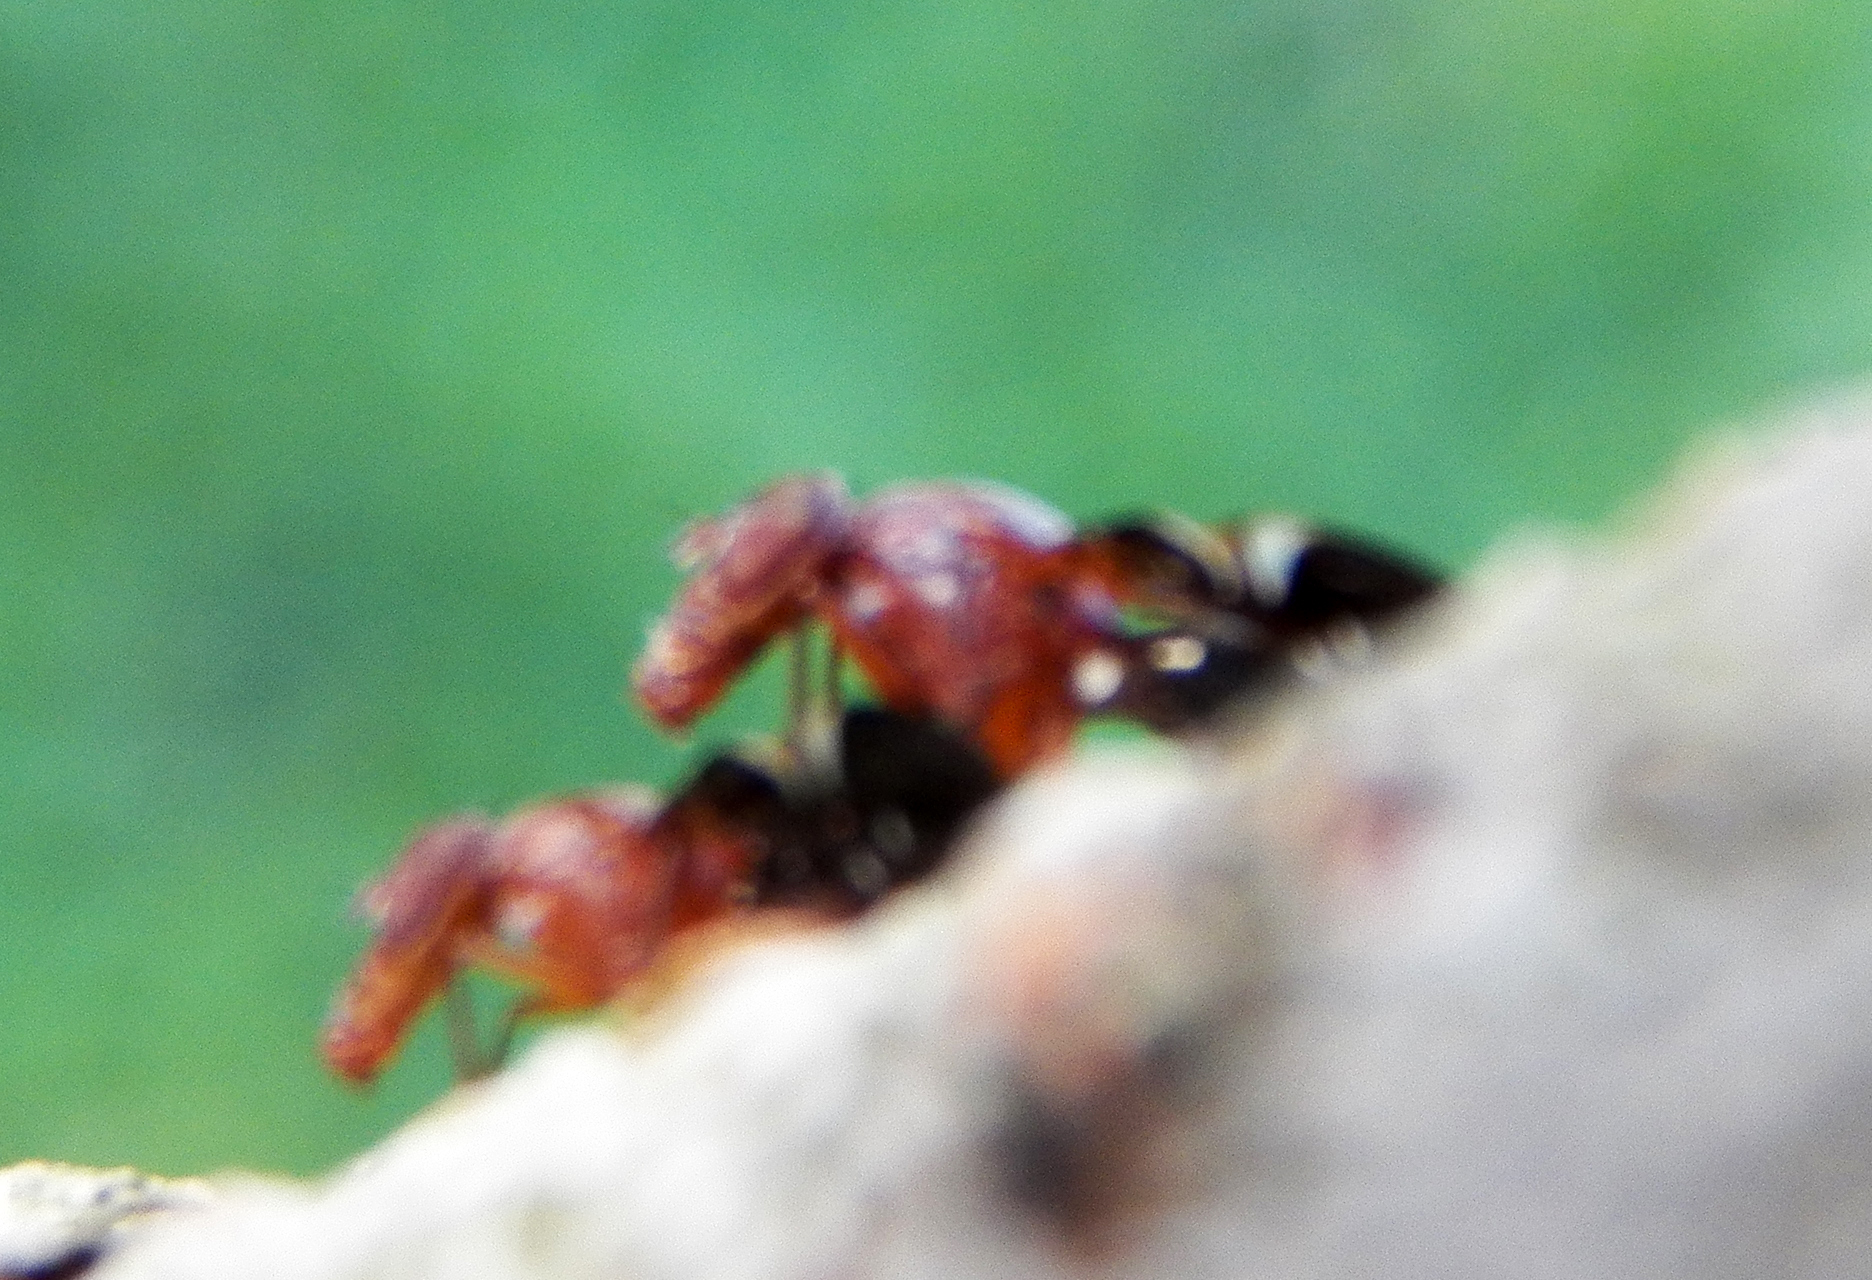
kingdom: Animalia
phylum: Arthropoda
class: Insecta
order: Diptera
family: Ulidiidae
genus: Delphinia
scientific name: Delphinia picta
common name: Common picture-winged fly
